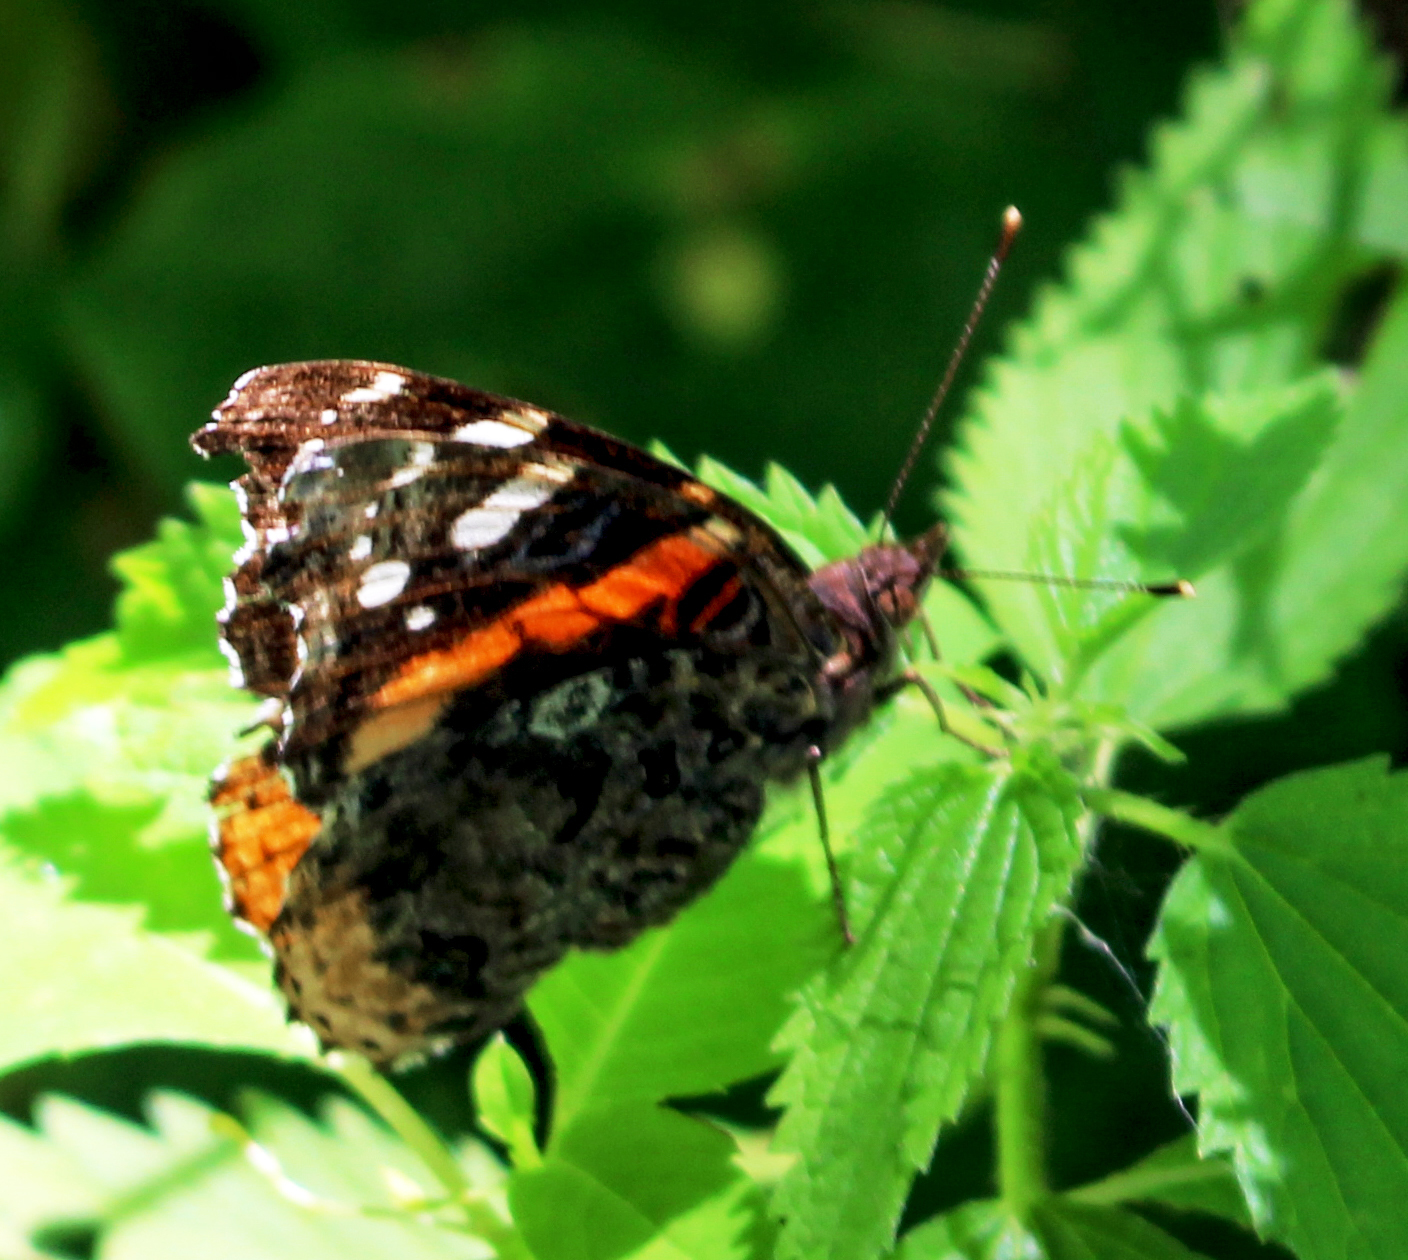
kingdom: Animalia
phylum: Arthropoda
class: Insecta
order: Lepidoptera
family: Nymphalidae
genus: Vanessa
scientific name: Vanessa atalanta
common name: Red admiral
